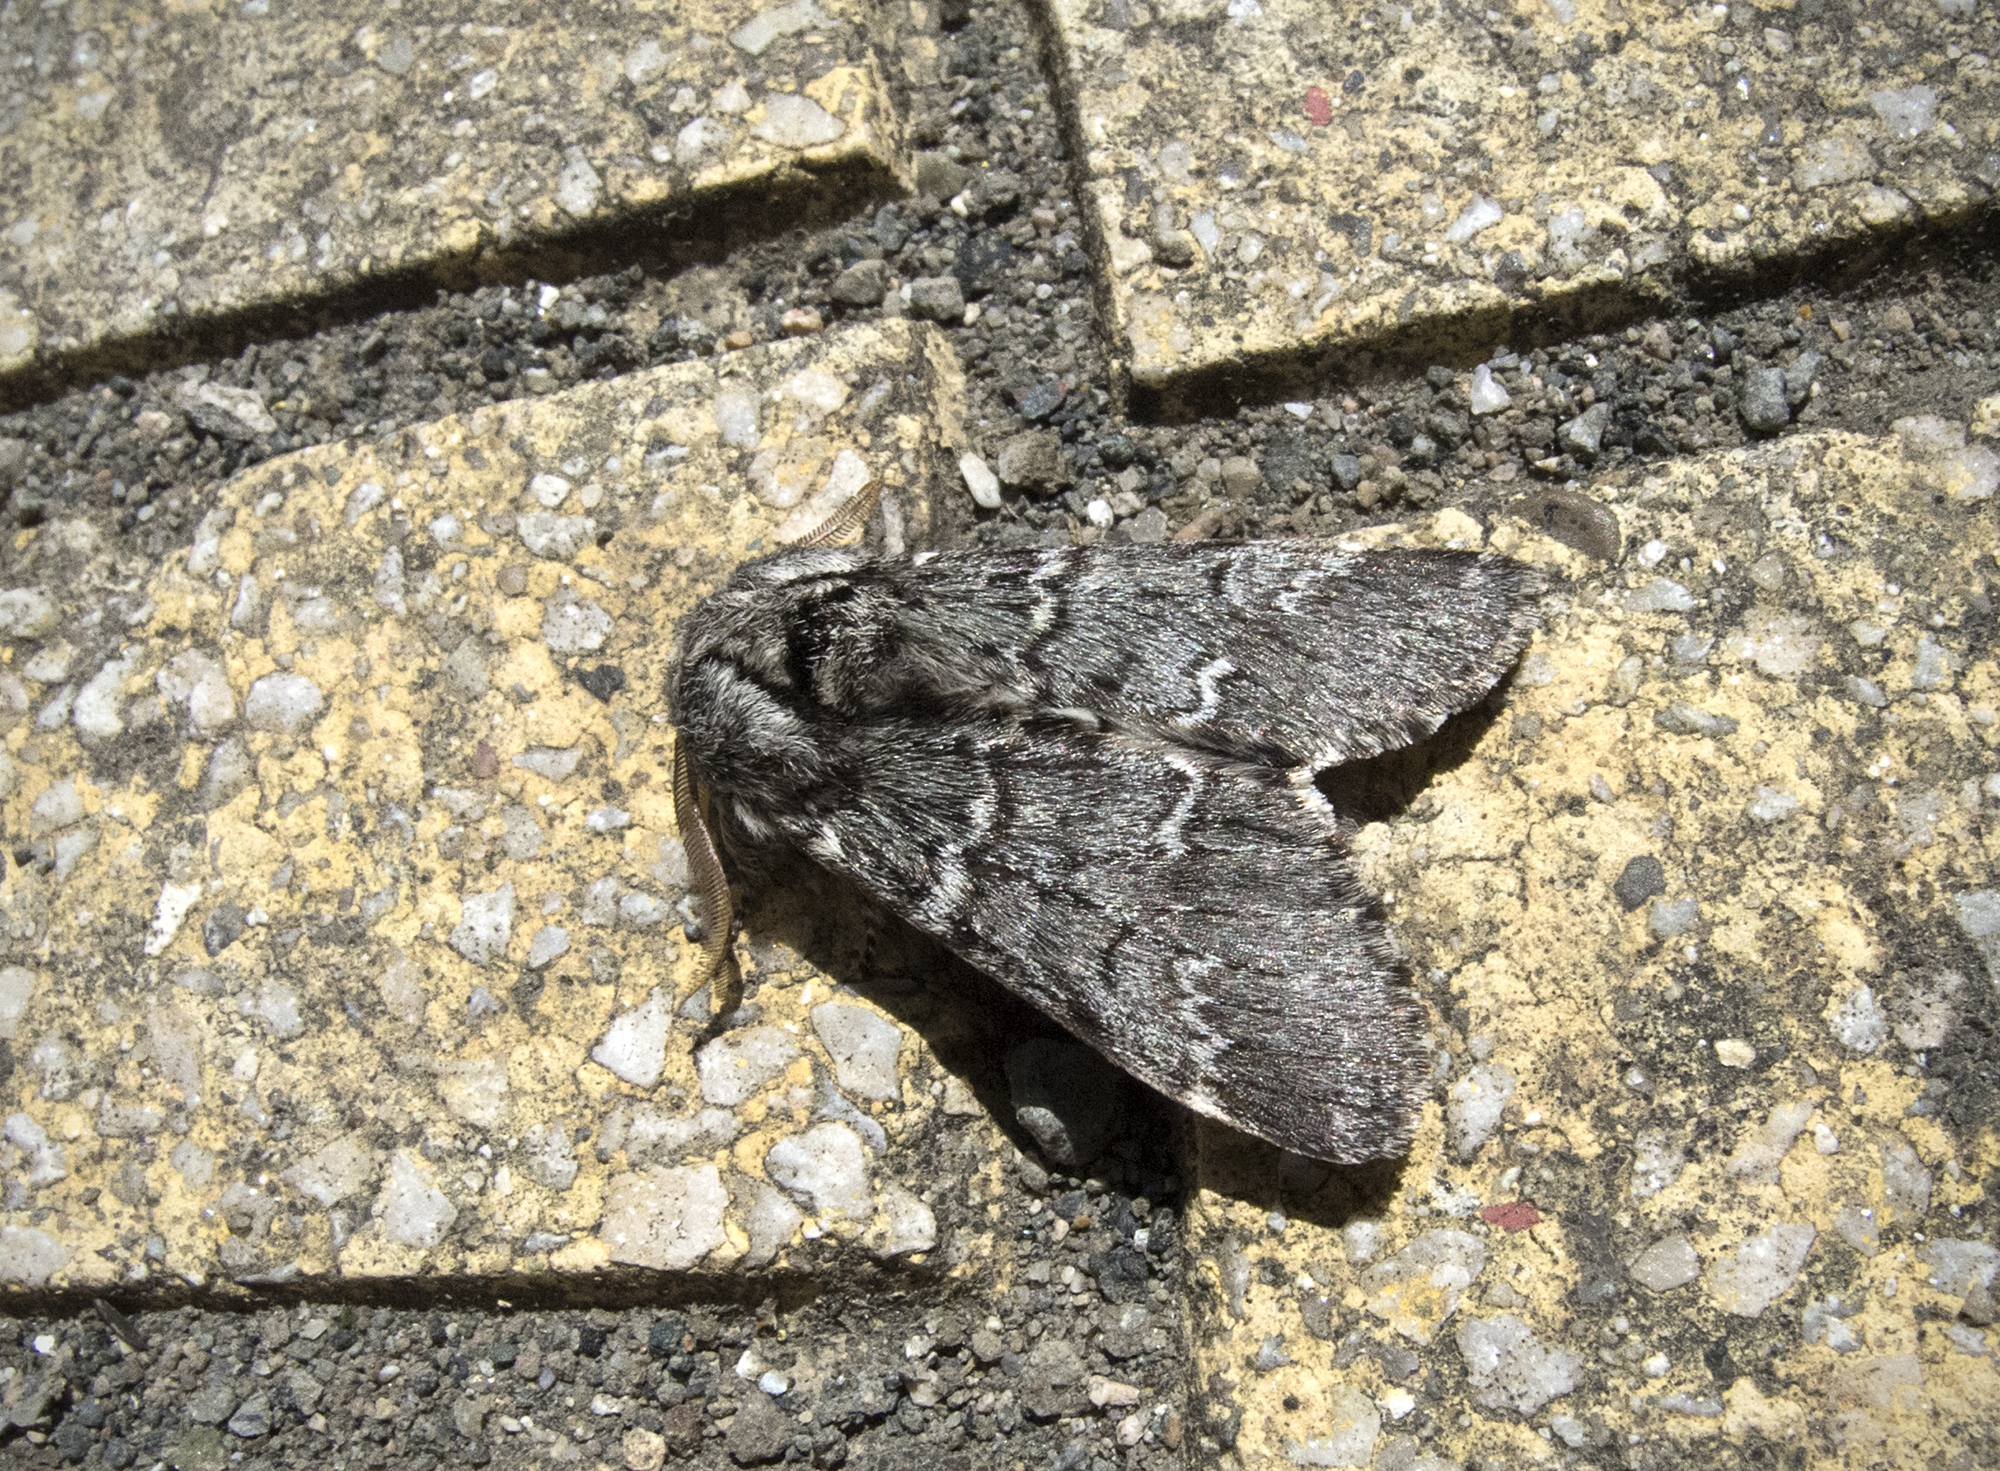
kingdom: Animalia
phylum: Arthropoda
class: Insecta
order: Lepidoptera
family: Notodontidae
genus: Drymonia
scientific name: Drymonia ruficornis
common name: Lunar marbled brown
